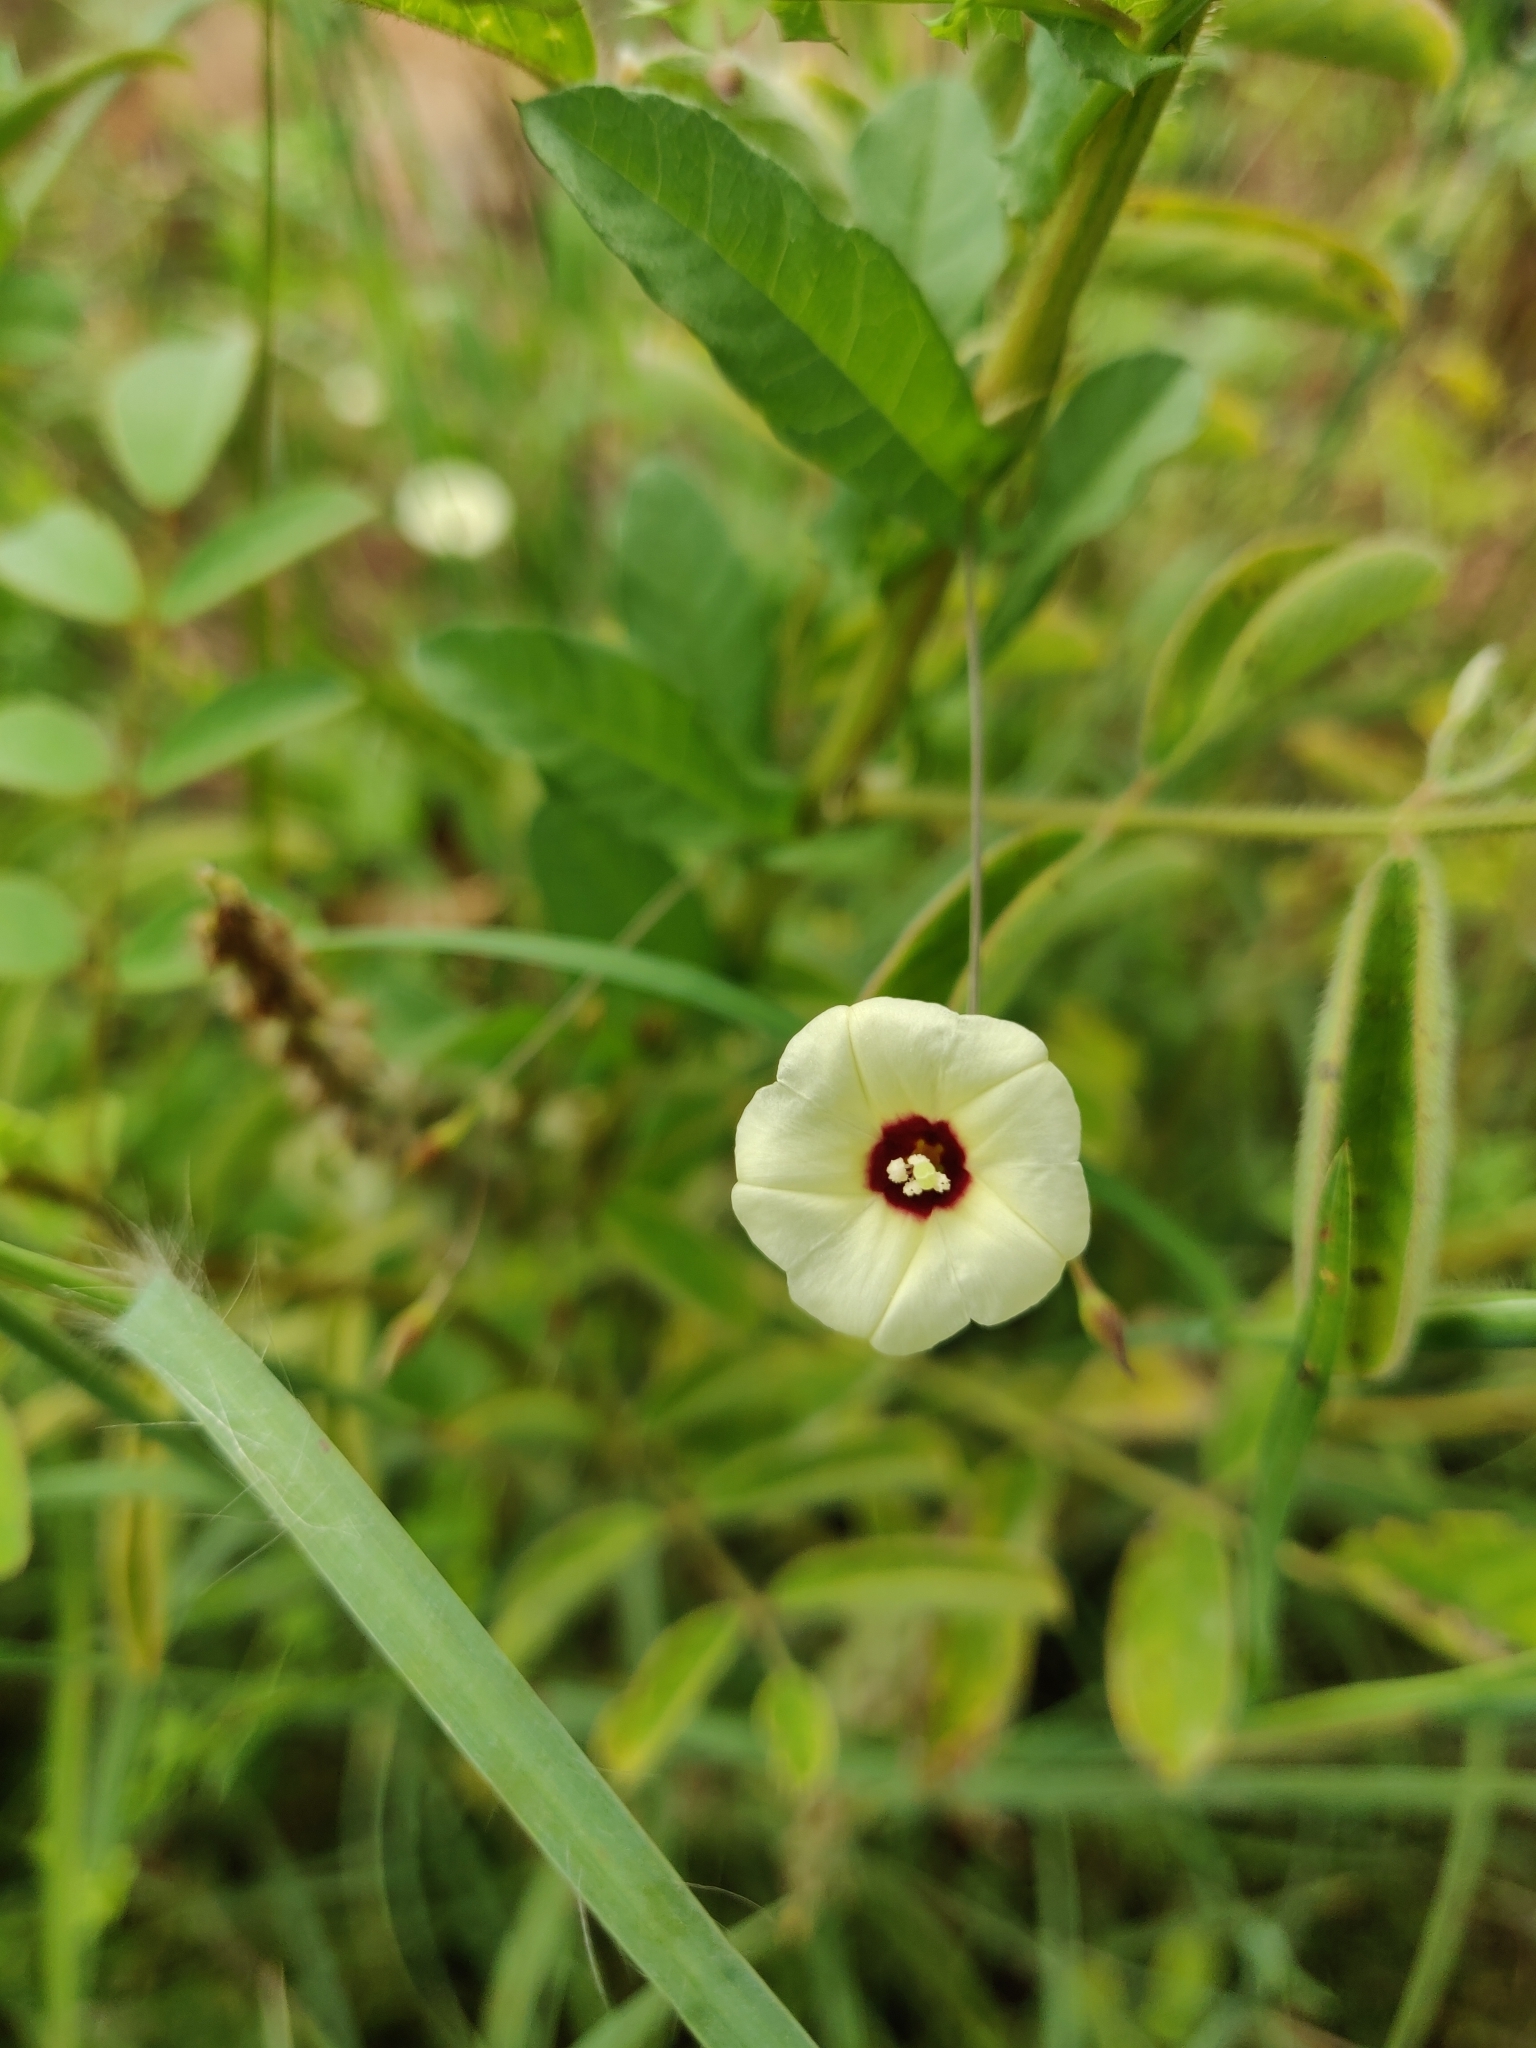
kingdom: Plantae
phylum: Tracheophyta
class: Magnoliopsida
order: Solanales
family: Convolvulaceae
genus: Xenostegia
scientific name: Xenostegia tridentata
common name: African morningvine
